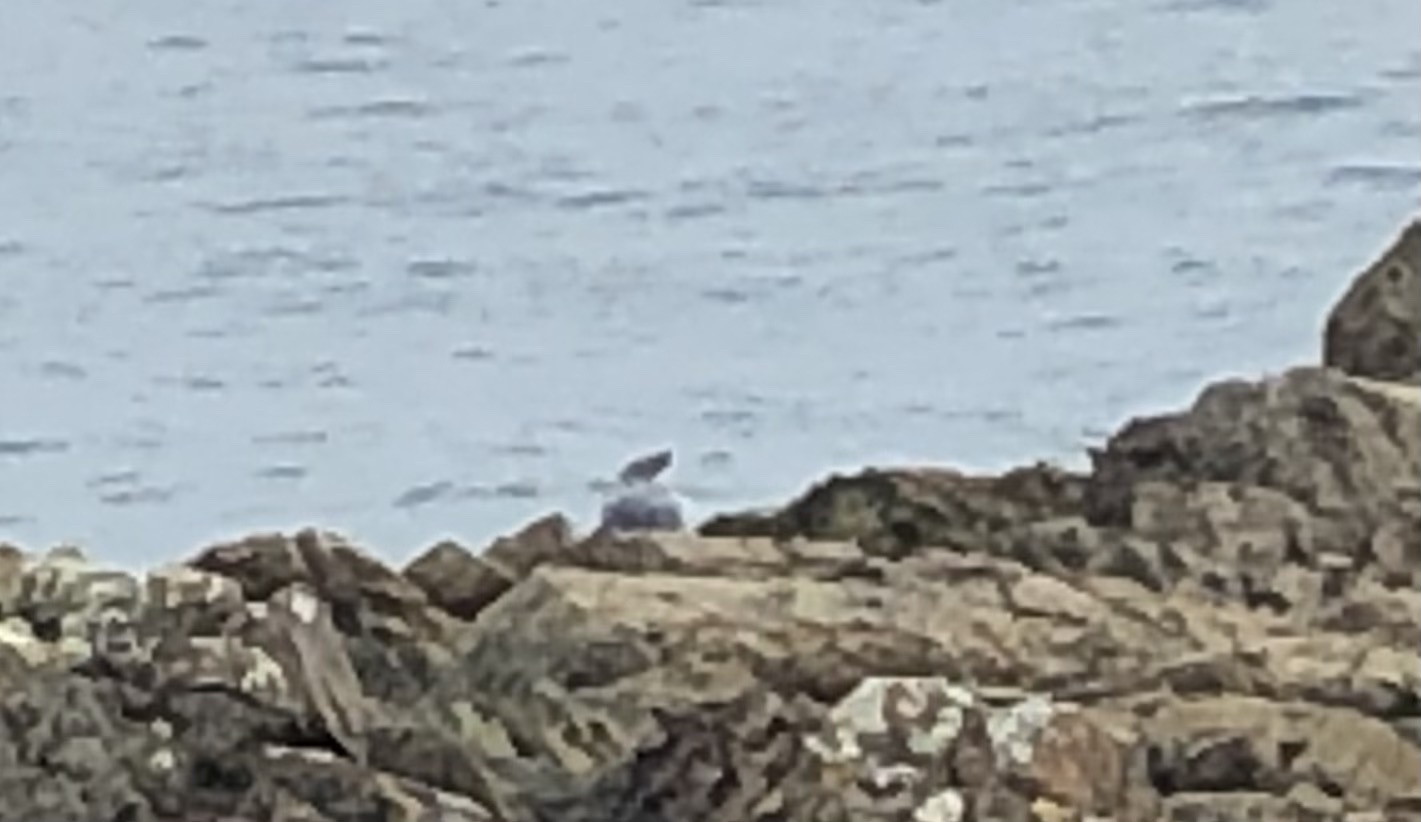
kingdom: Animalia
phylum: Chordata
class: Mammalia
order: Carnivora
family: Phocidae
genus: Halichoerus
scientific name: Halichoerus grypus
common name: Grey seal
